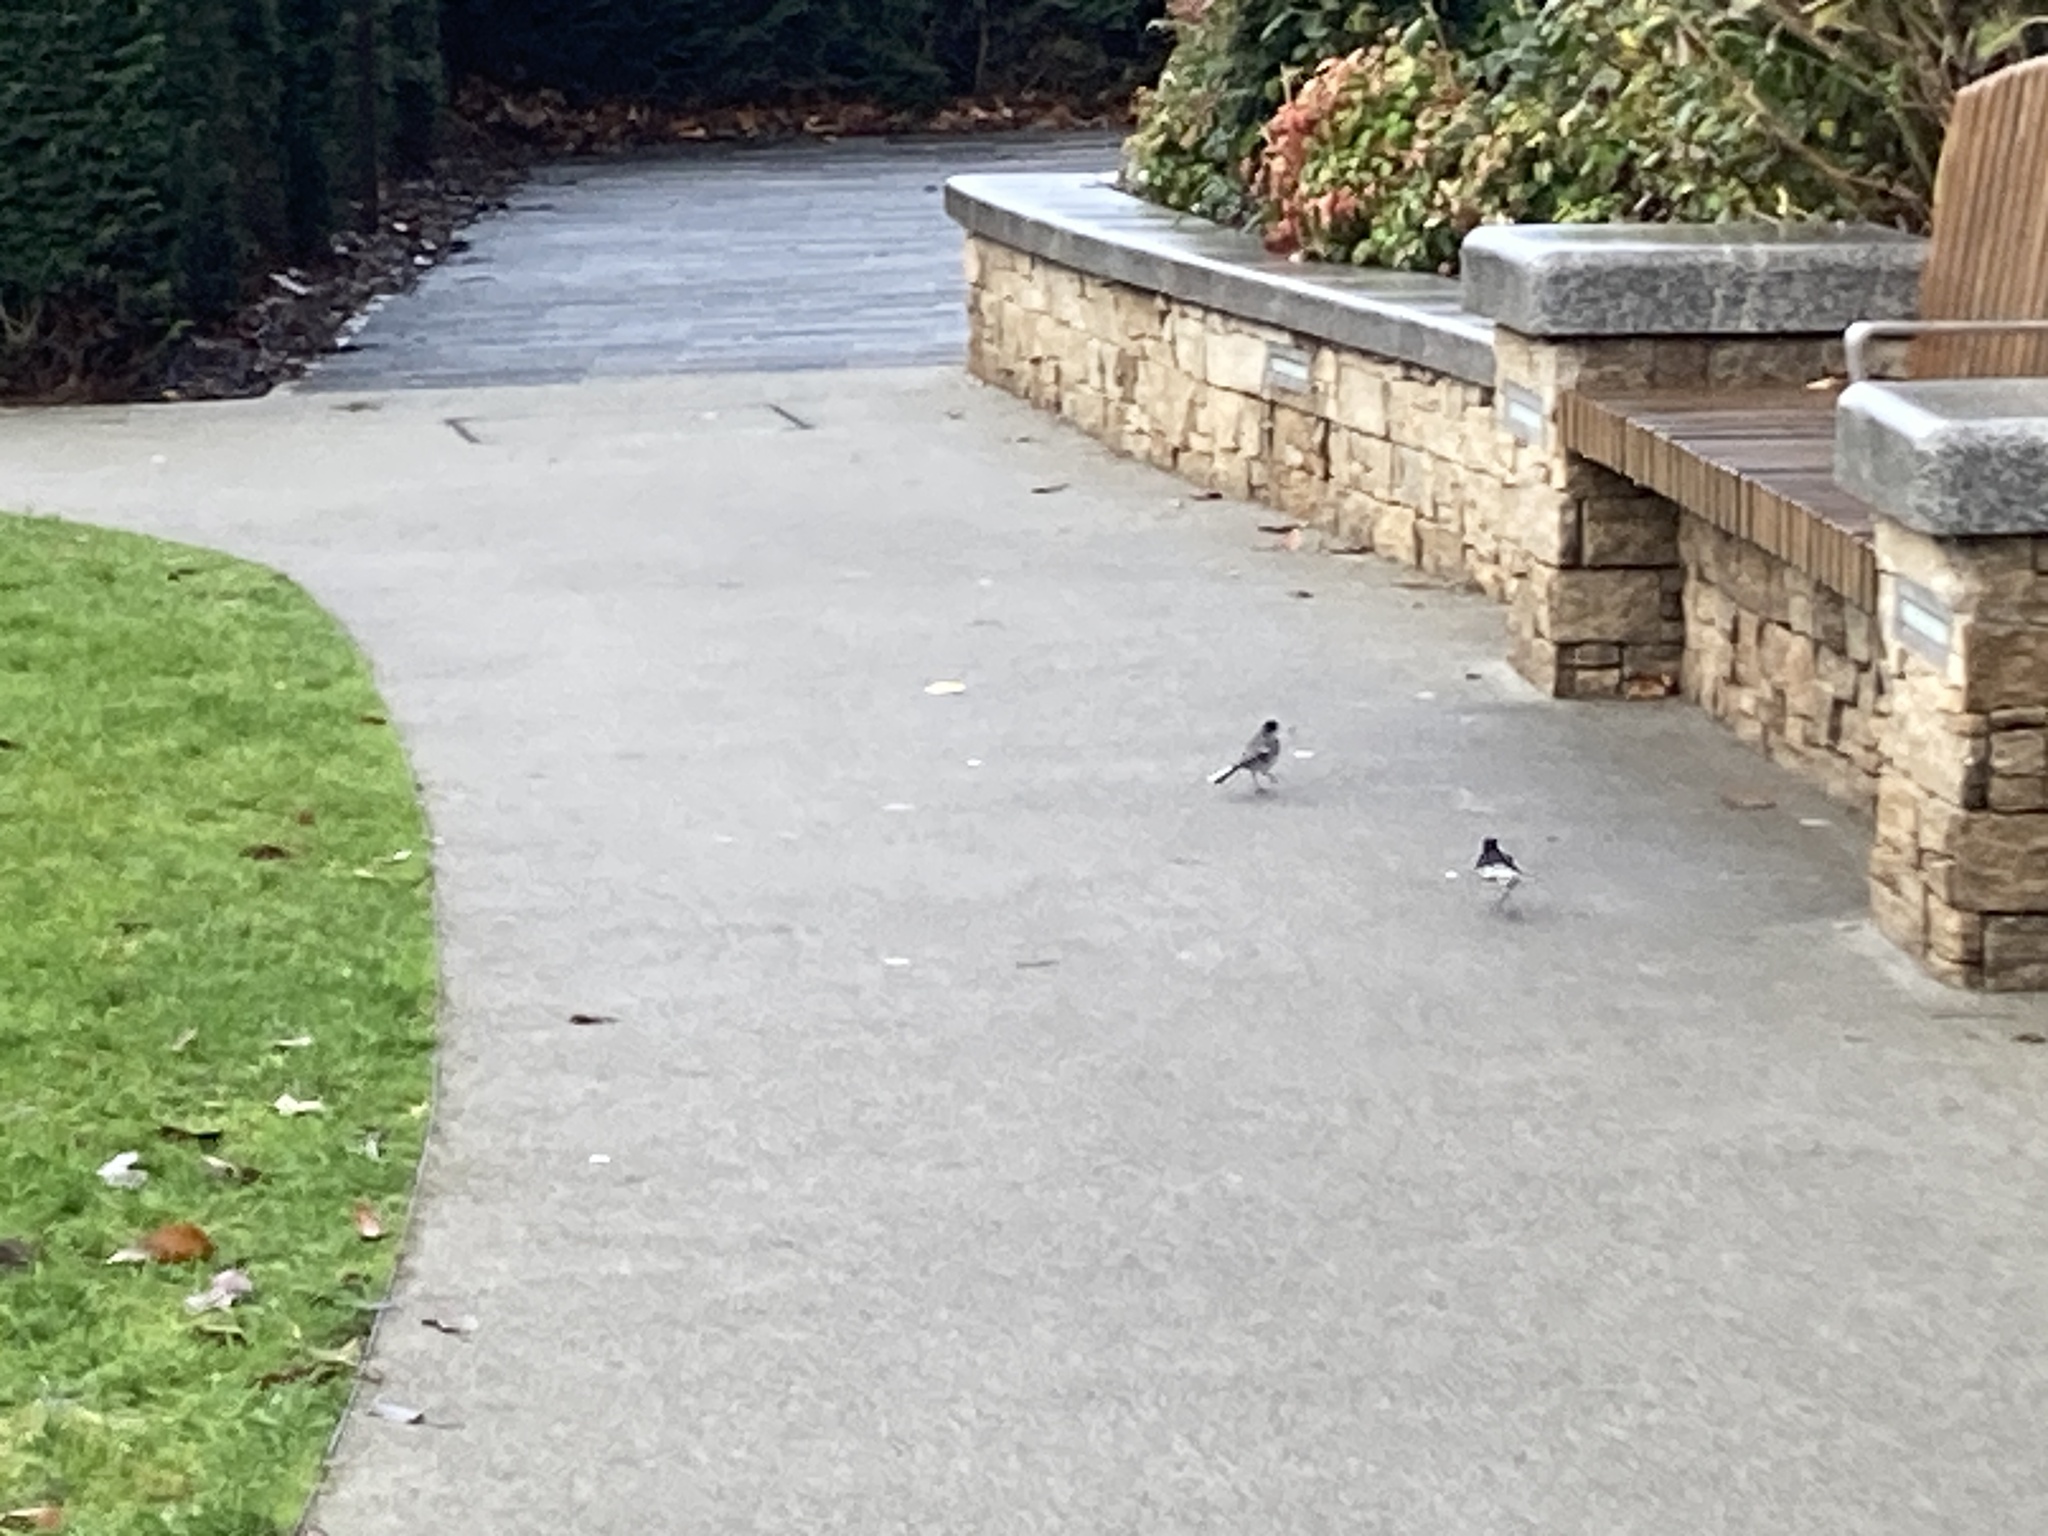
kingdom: Animalia
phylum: Chordata
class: Aves
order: Passeriformes
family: Motacillidae
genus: Motacilla
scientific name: Motacilla alba
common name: White wagtail
